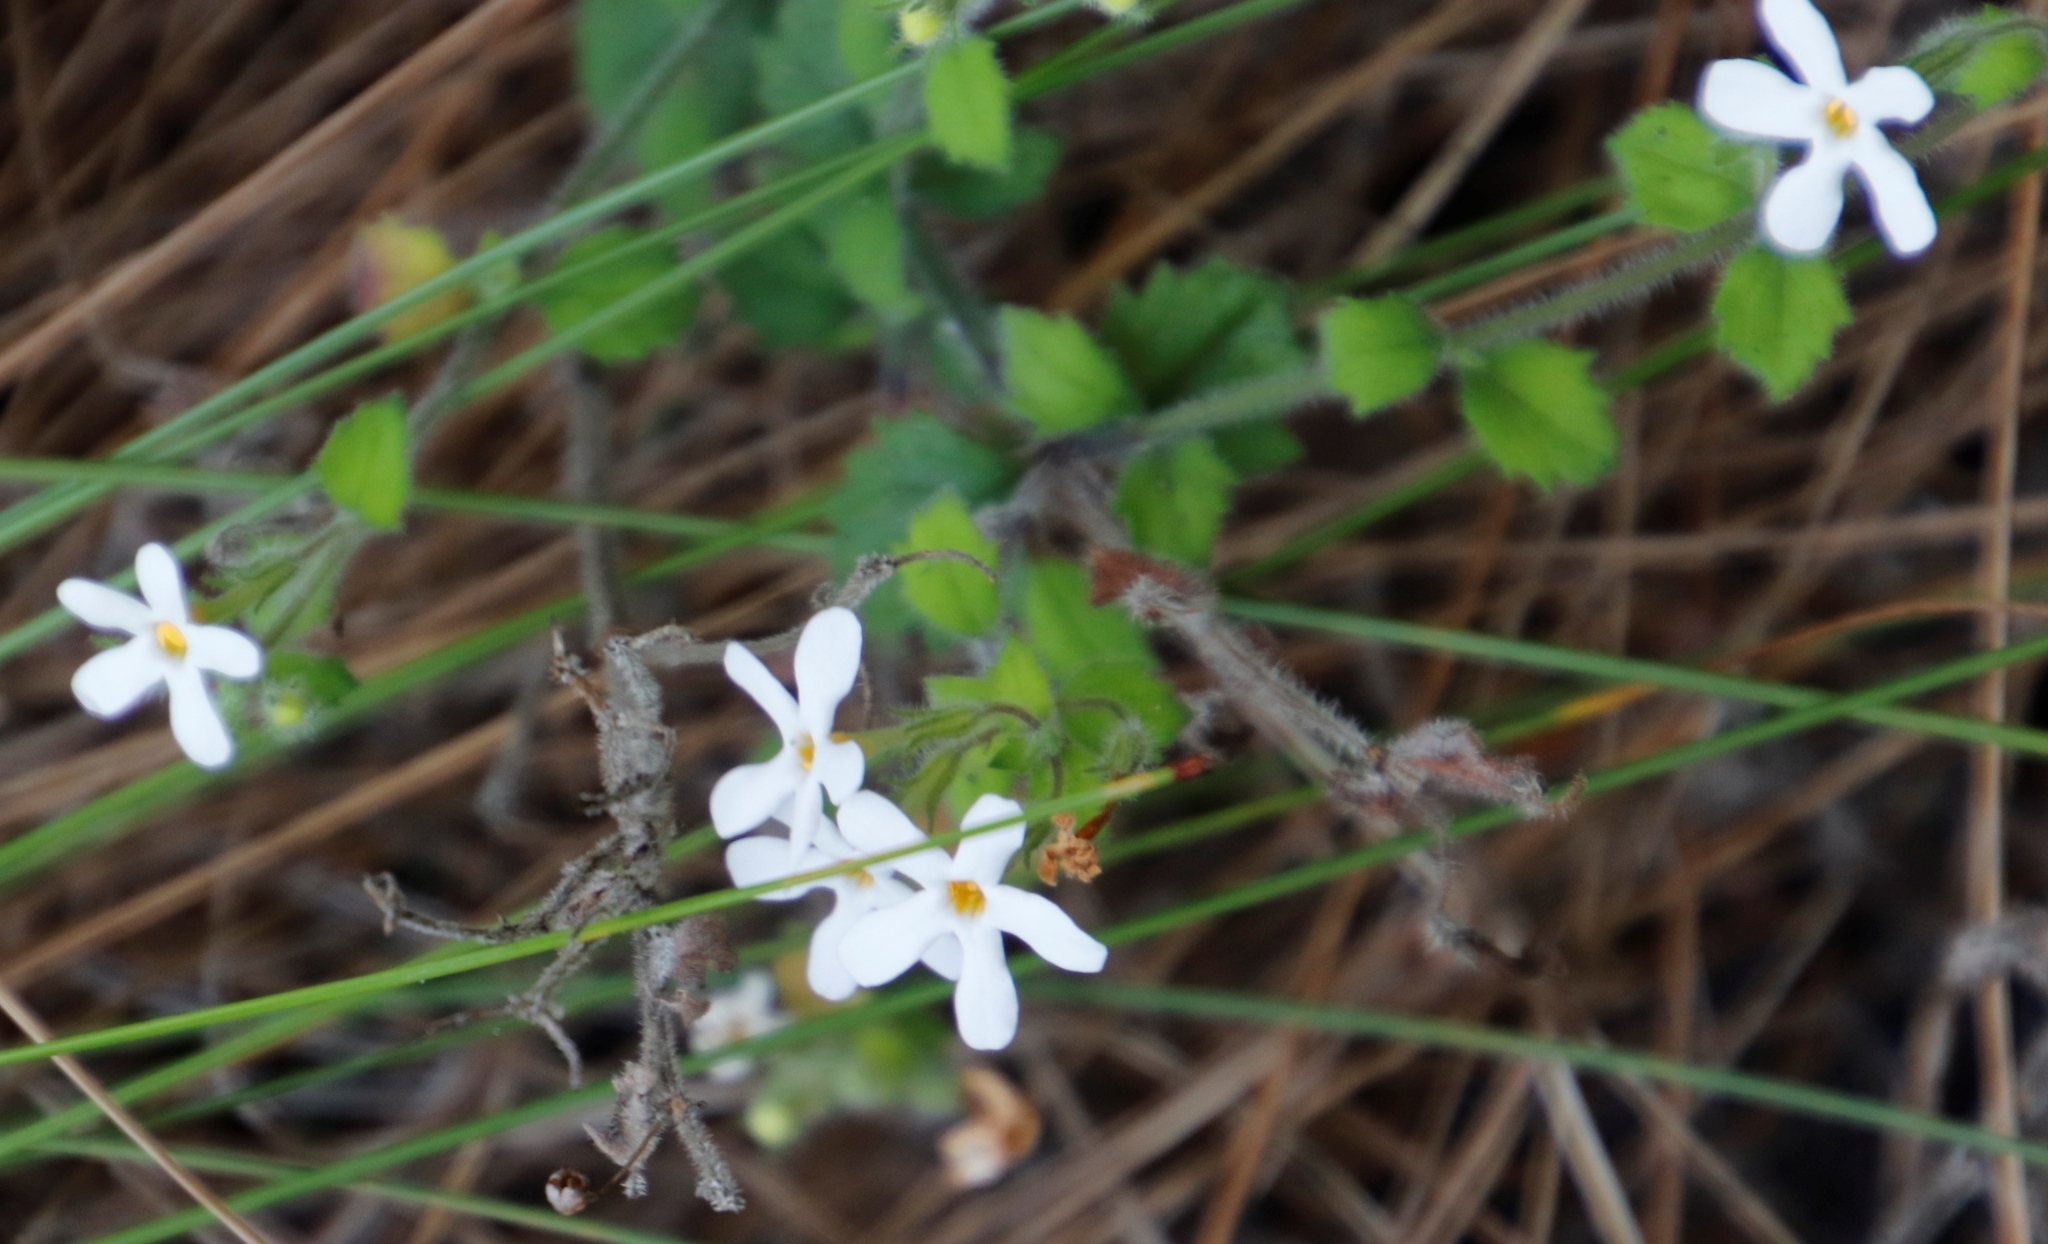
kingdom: Plantae
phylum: Tracheophyta
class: Magnoliopsida
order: Lamiales
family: Scrophulariaceae
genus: Chaenostoma
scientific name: Chaenostoma hispidum
